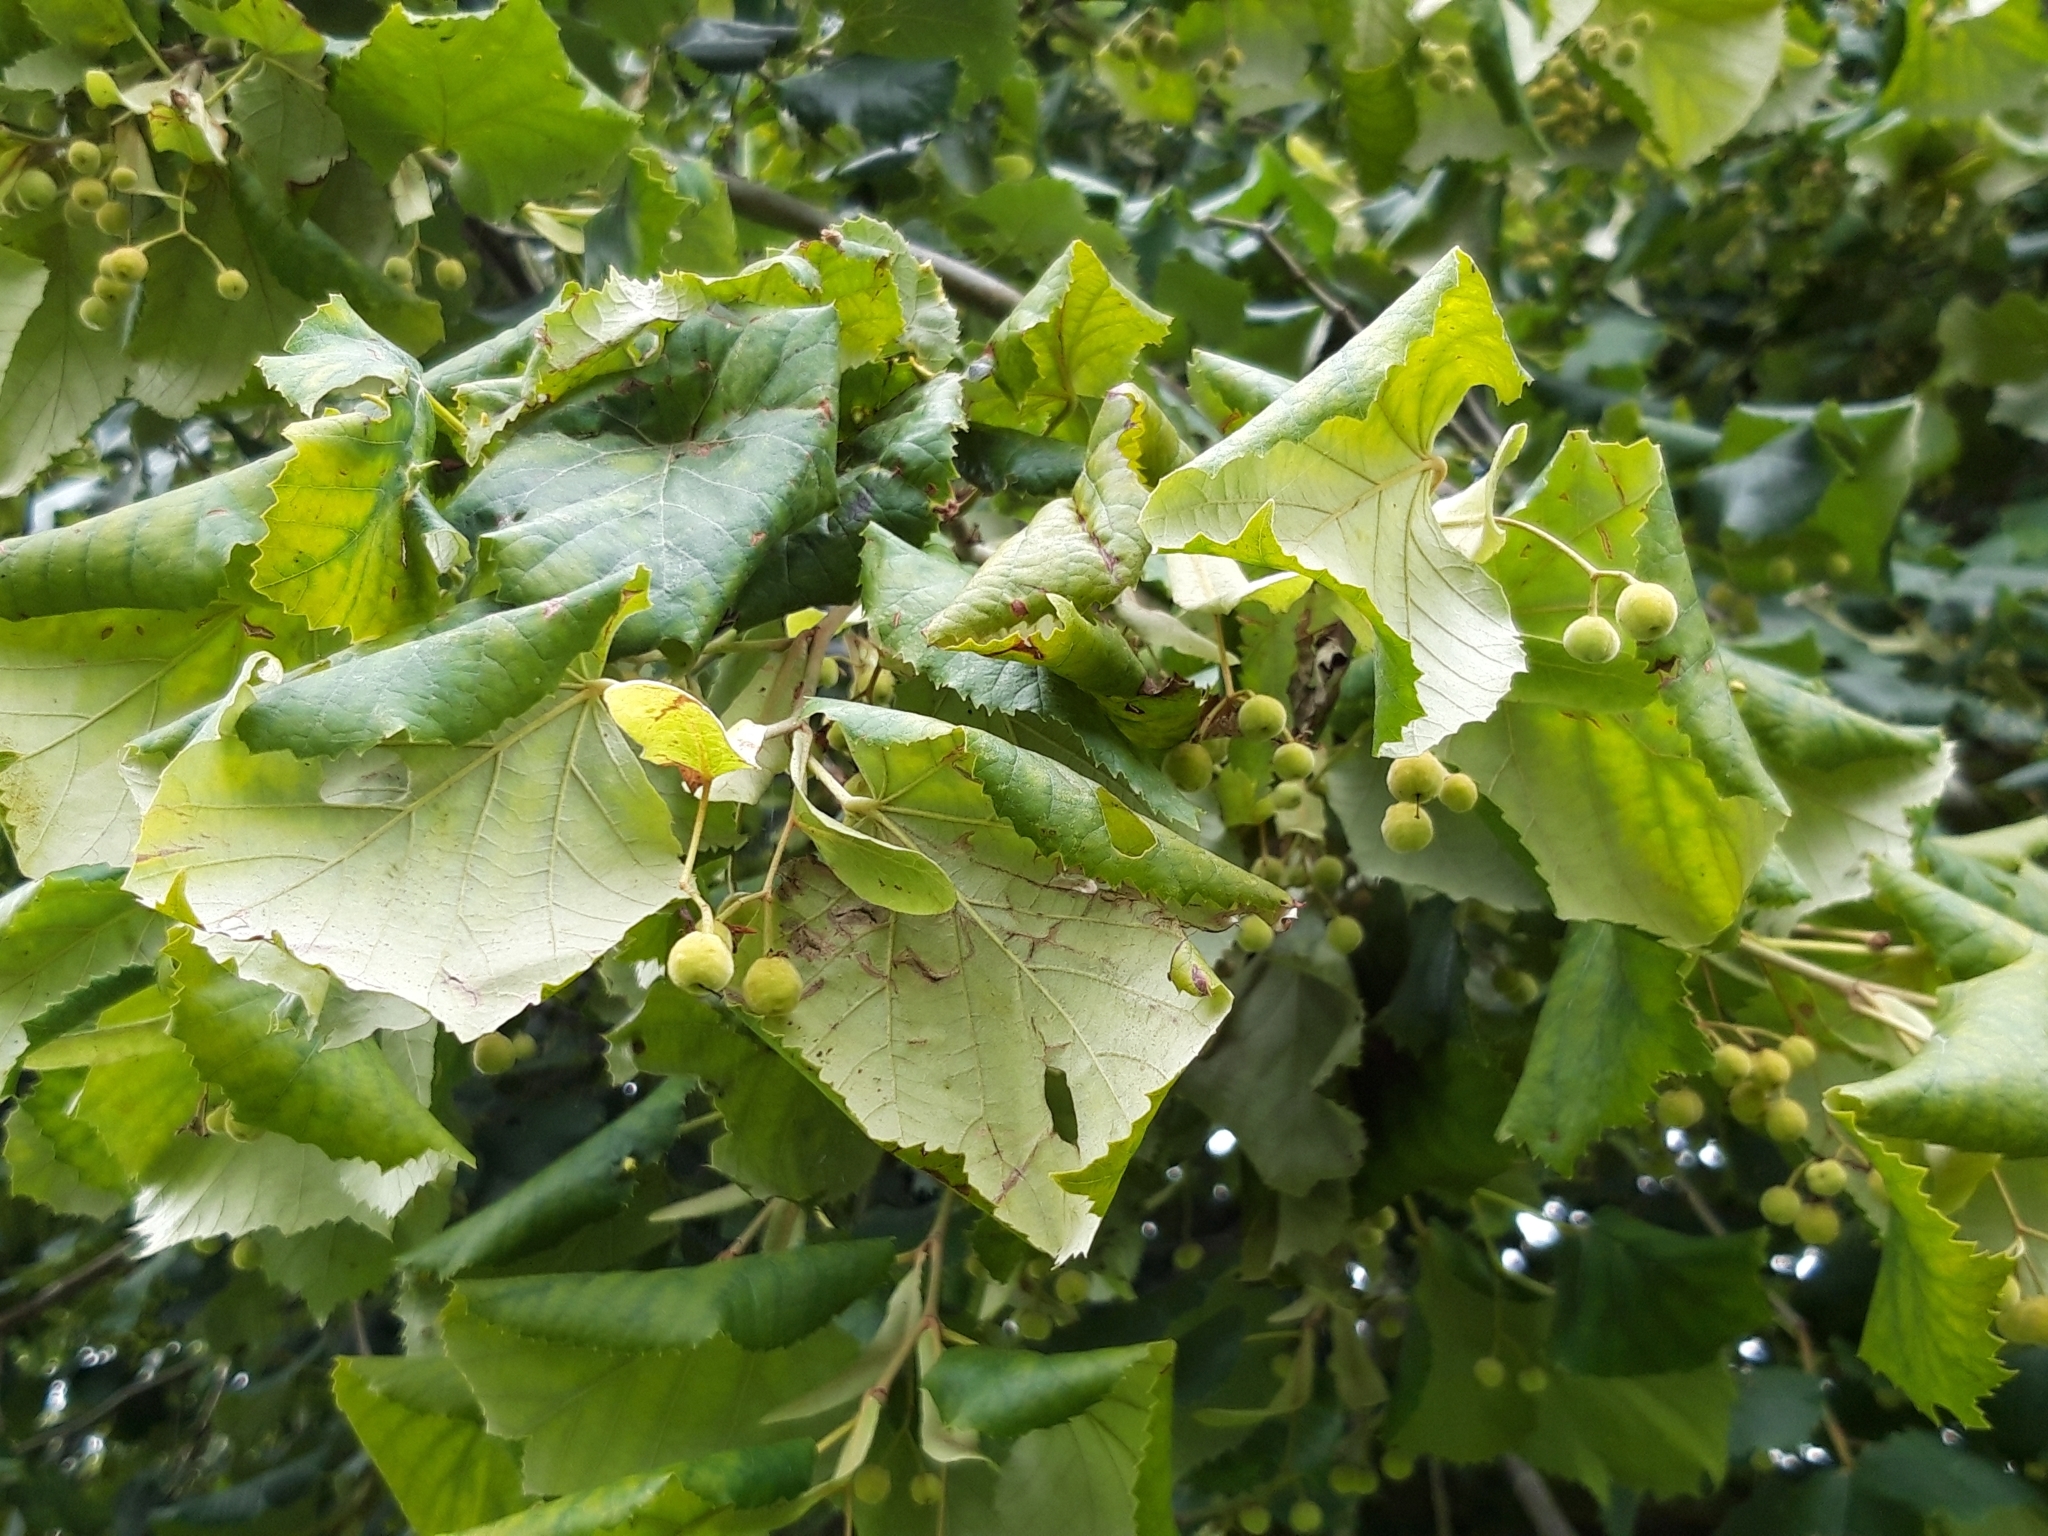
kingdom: Plantae
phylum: Tracheophyta
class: Magnoliopsida
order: Malvales
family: Malvaceae
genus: Tilia
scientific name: Tilia platyphyllos
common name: Large-leaved lime
